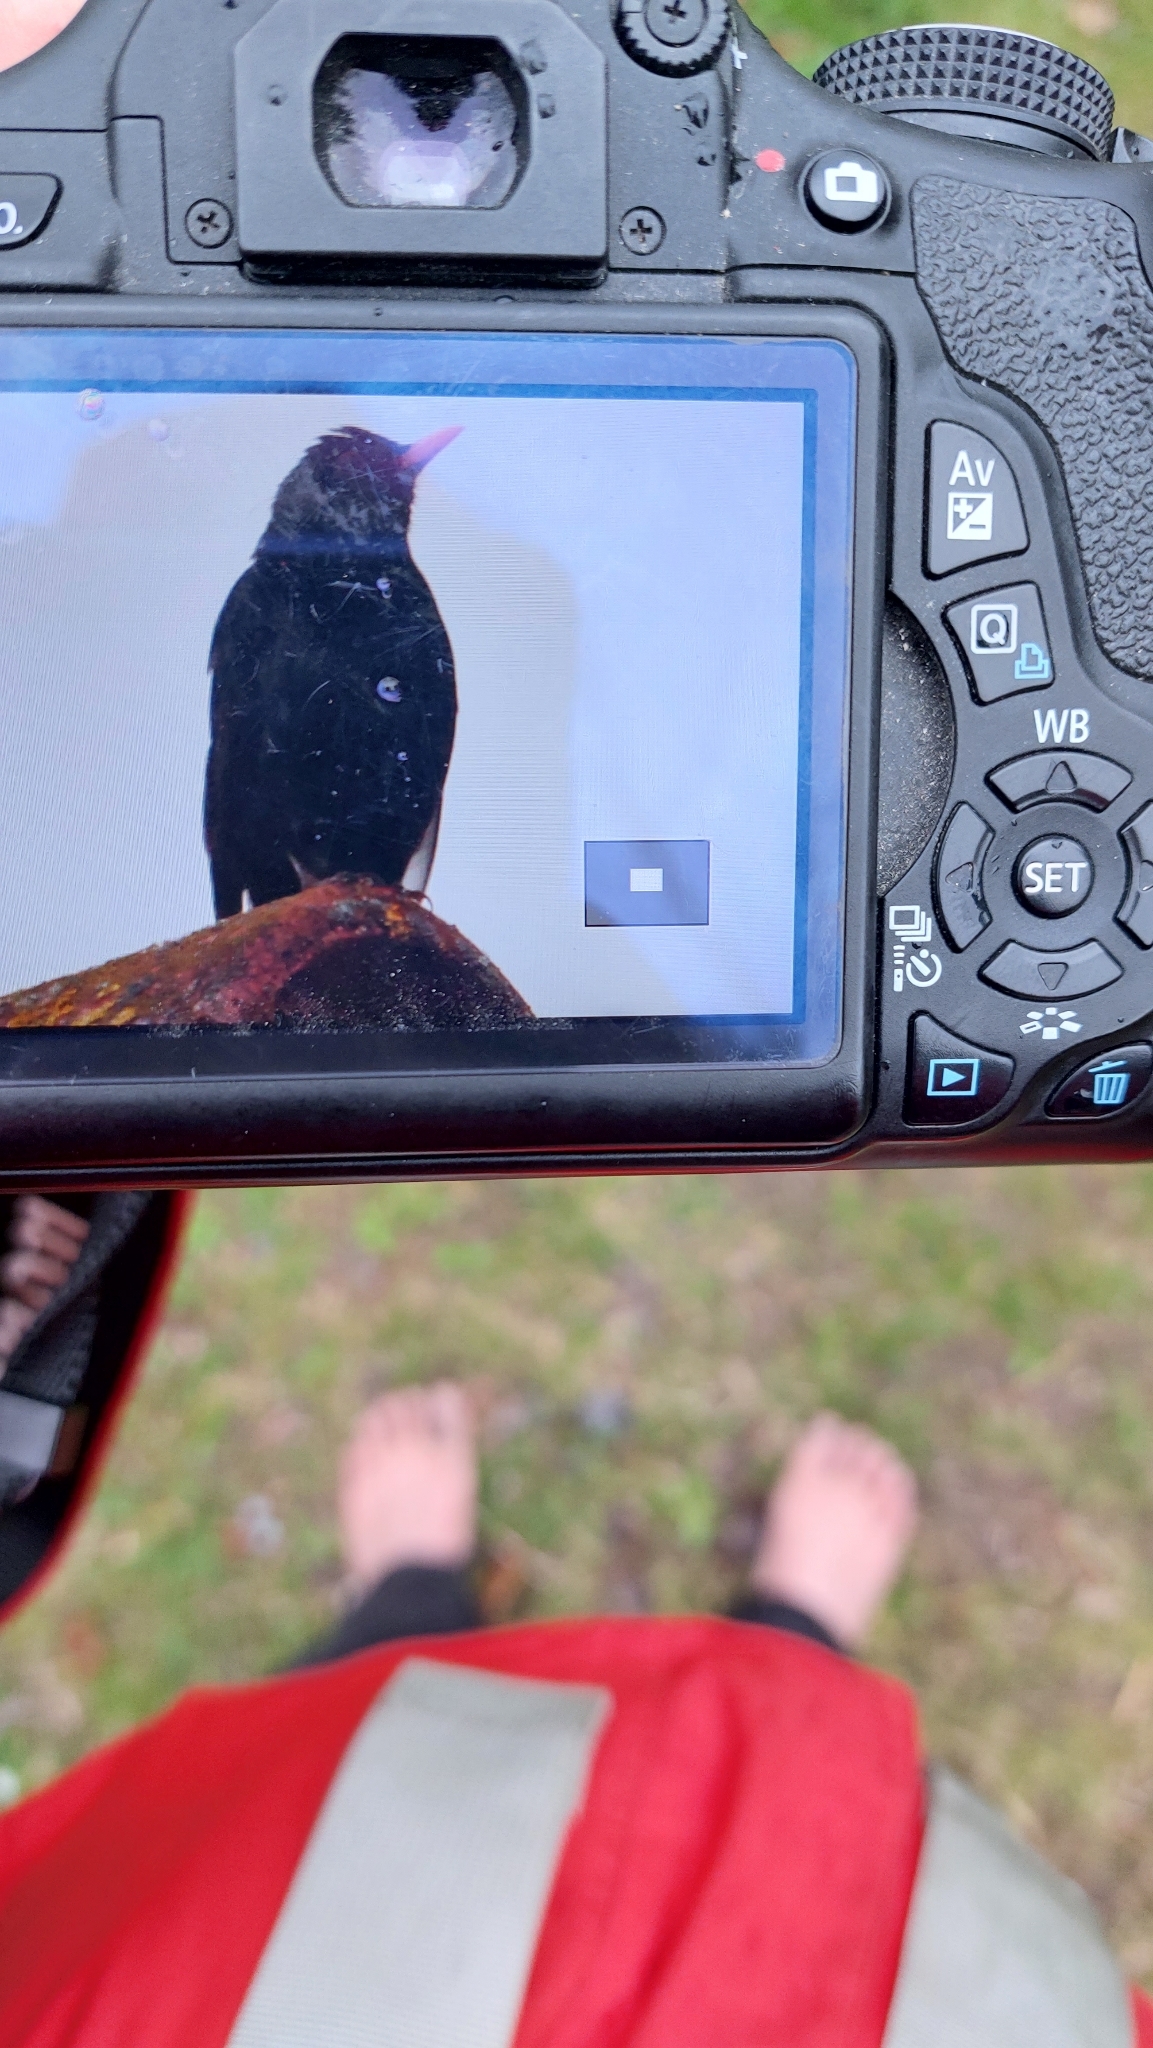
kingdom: Animalia
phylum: Chordata
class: Aves
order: Passeriformes
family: Turdidae
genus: Turdus
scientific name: Turdus merula
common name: Common blackbird
